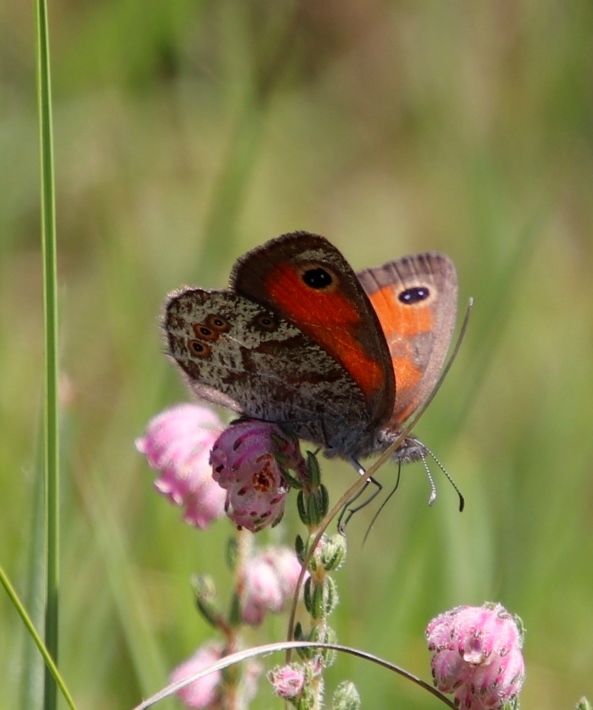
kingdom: Animalia
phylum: Arthropoda
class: Insecta
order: Lepidoptera
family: Nymphalidae
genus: Pseudonympha
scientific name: Pseudonympha magoides
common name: False silver-bottom brown
